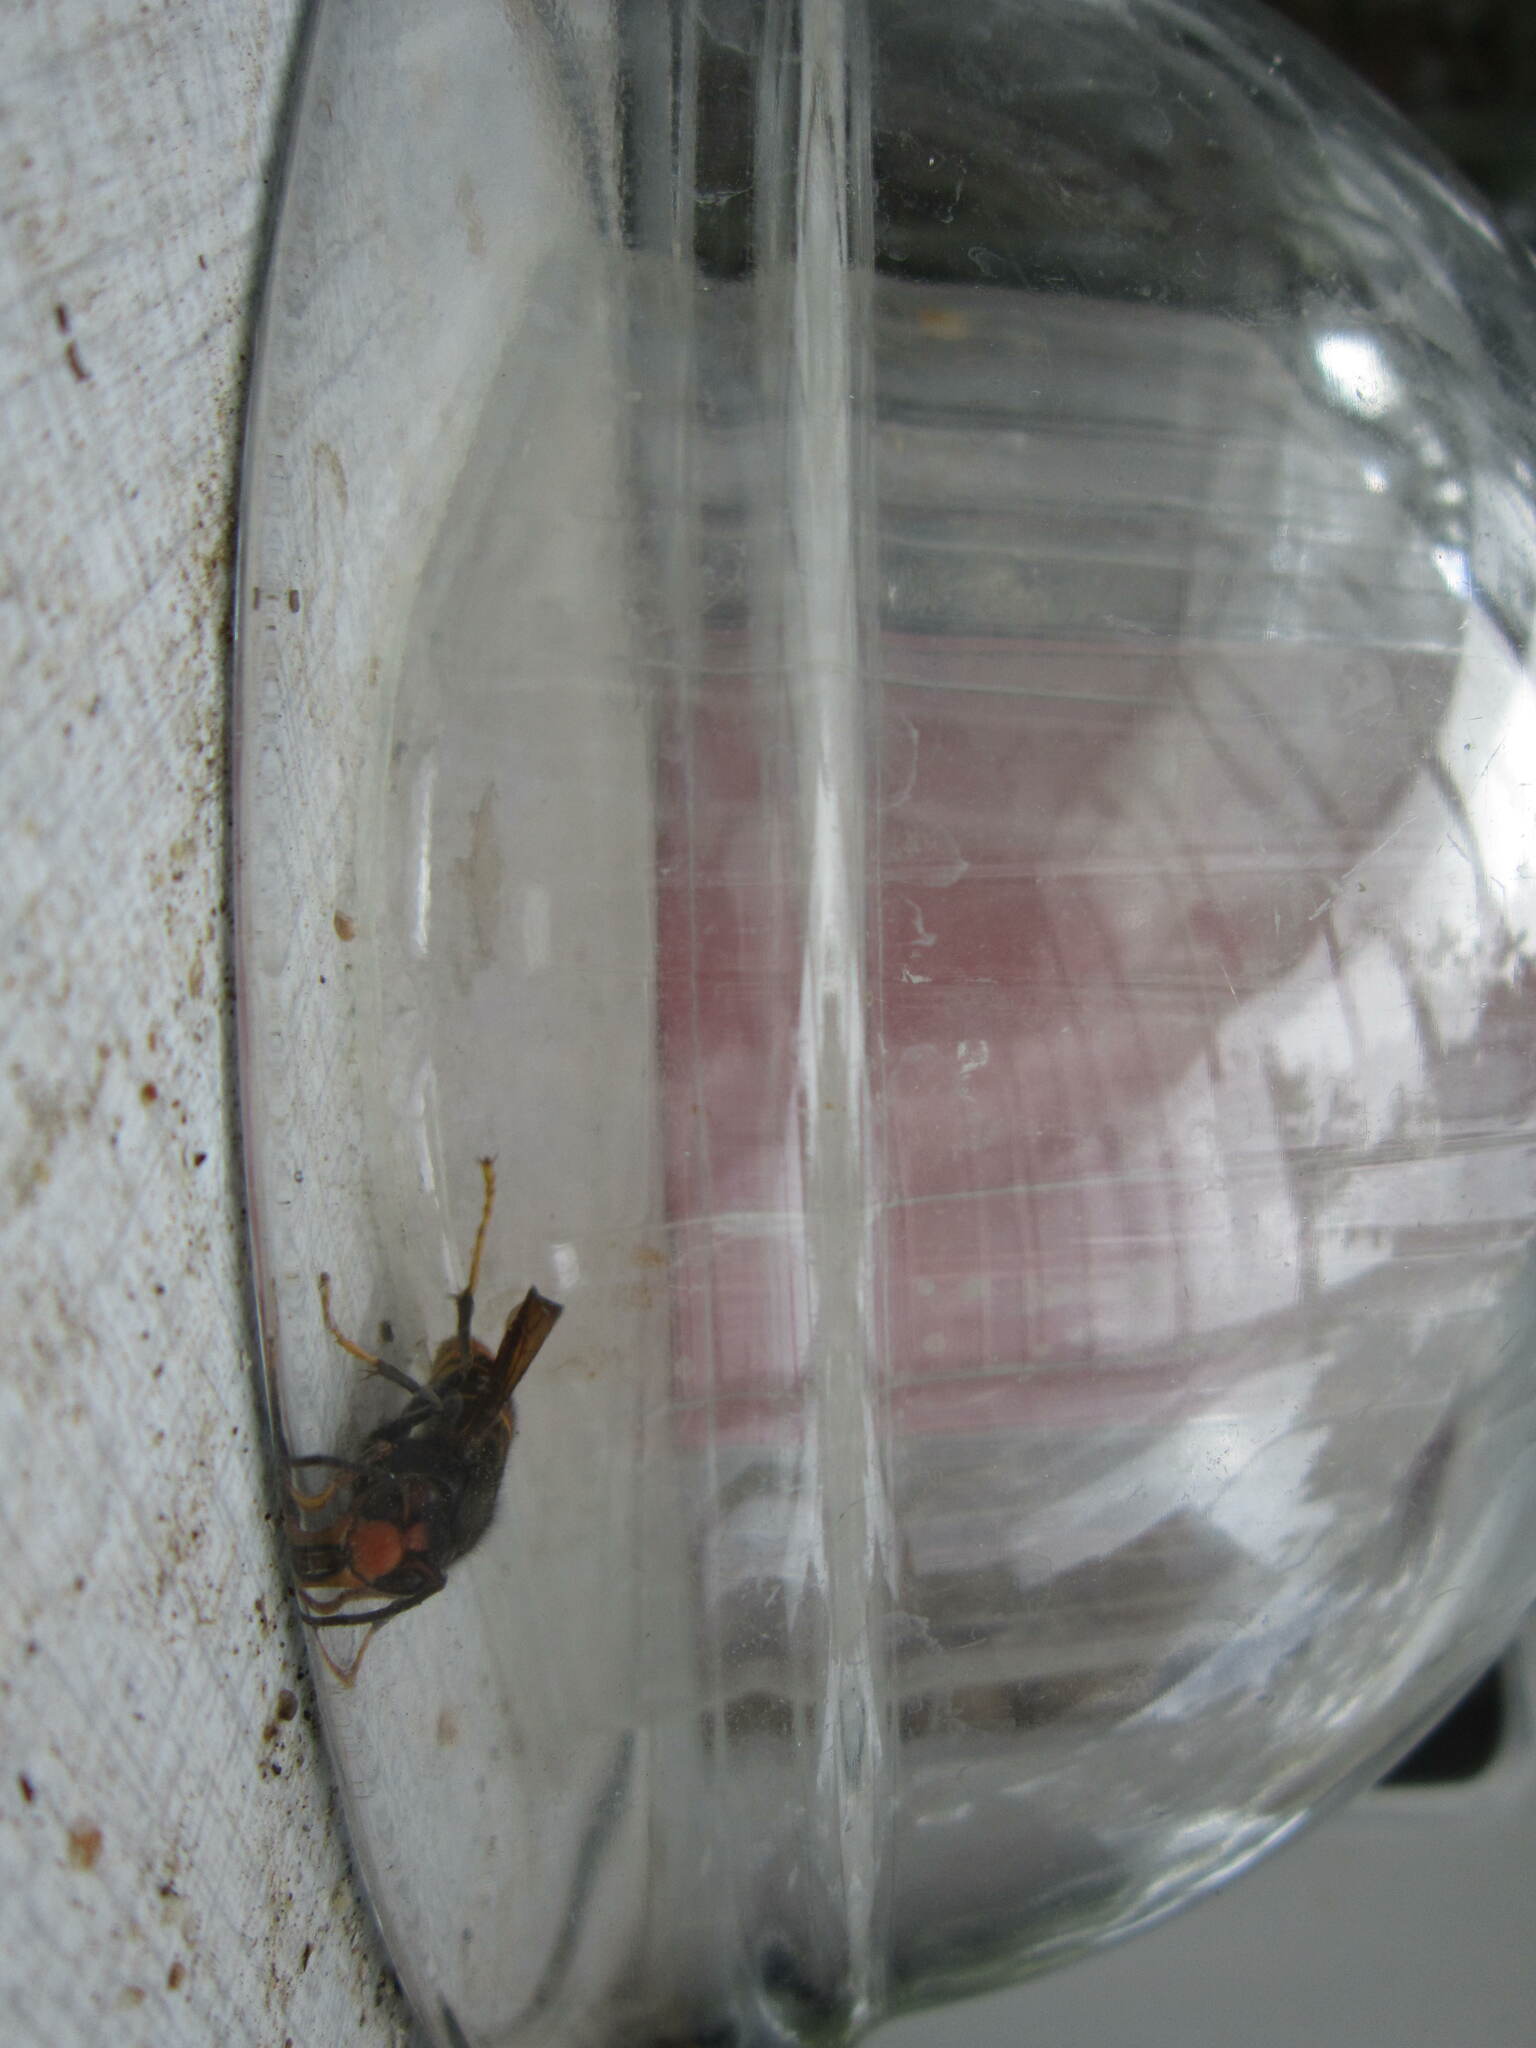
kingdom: Animalia
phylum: Arthropoda
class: Insecta
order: Hymenoptera
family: Vespidae
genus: Vespa
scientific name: Vespa velutina
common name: Asian hornet
